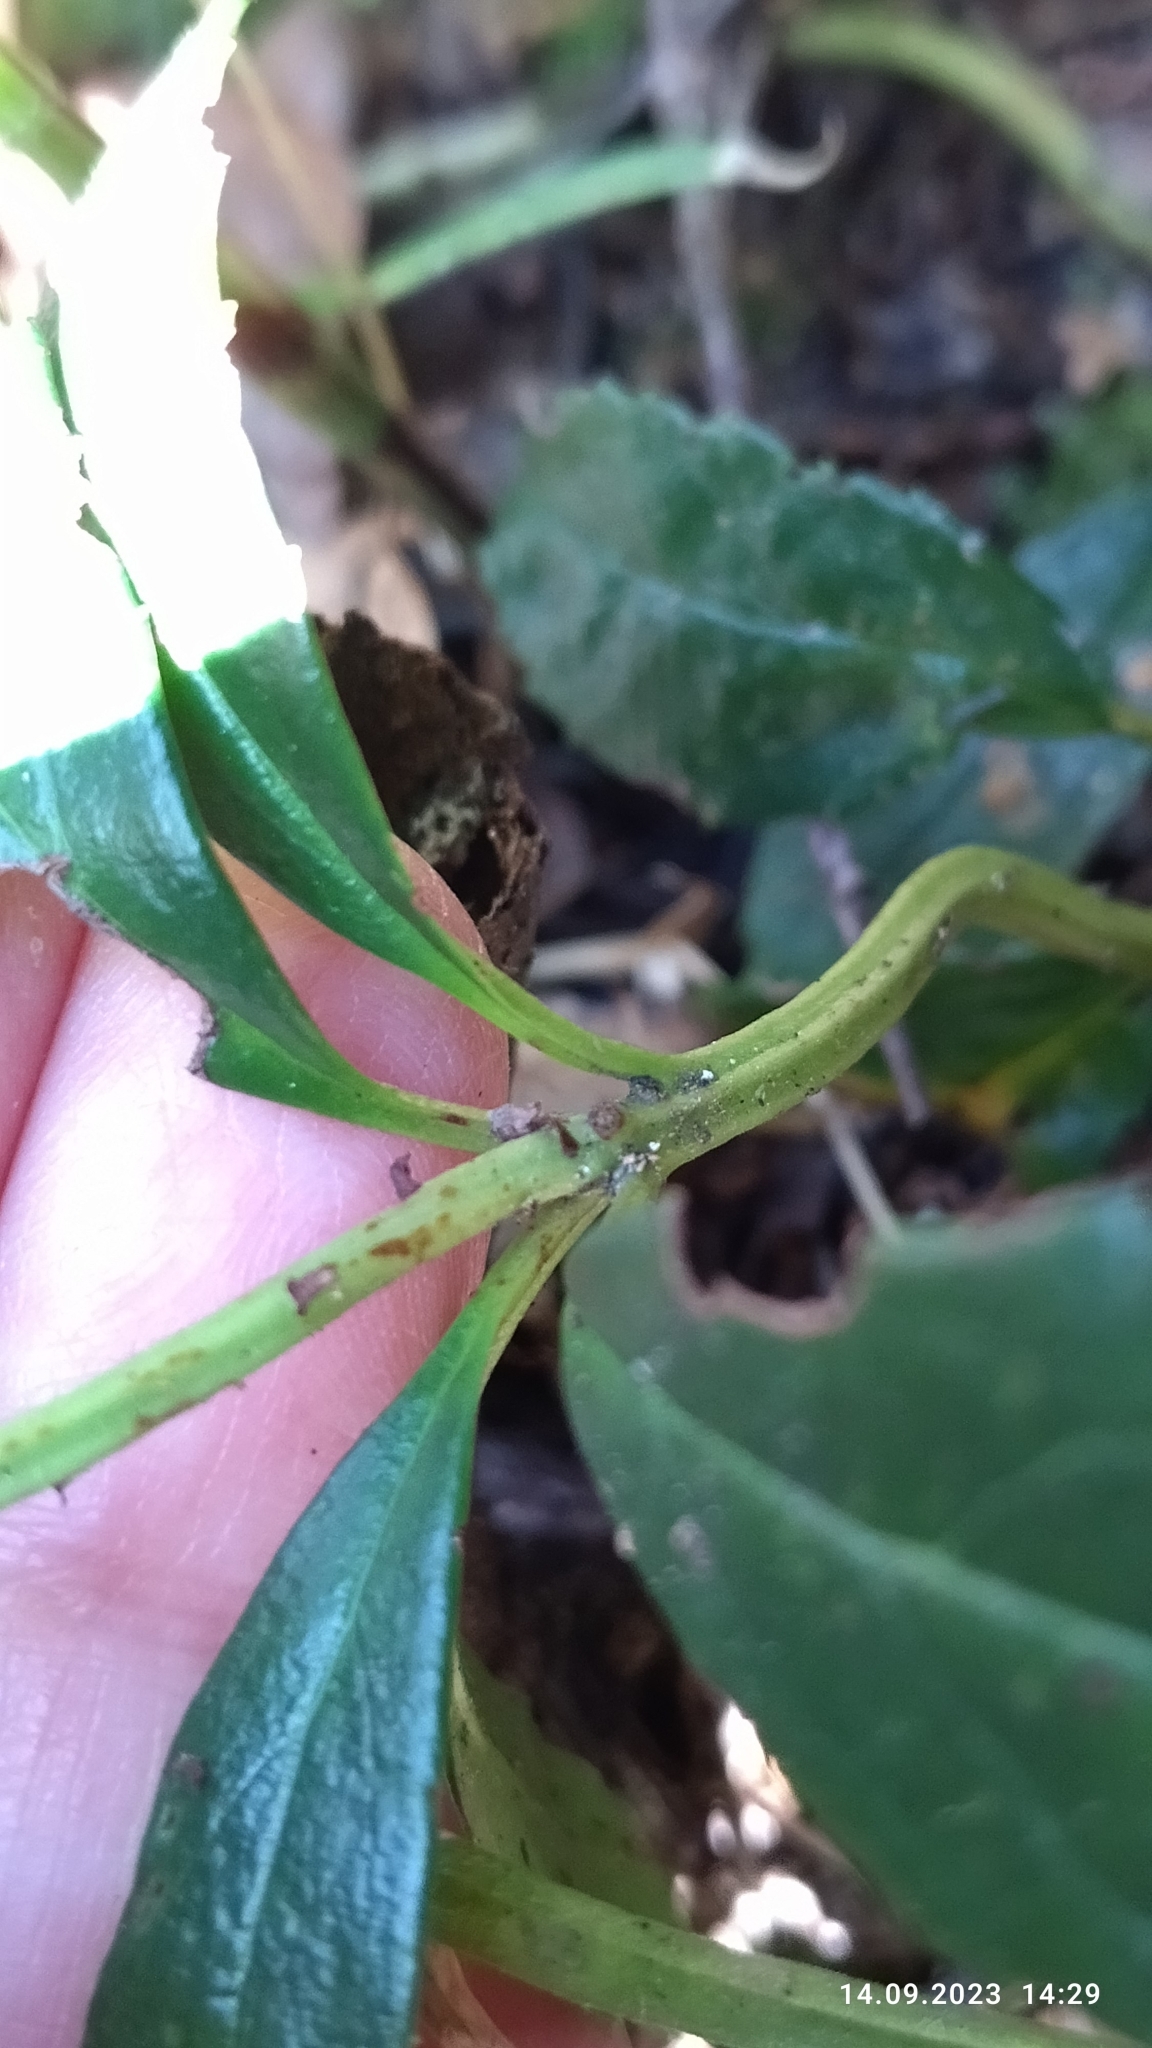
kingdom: Plantae
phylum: Tracheophyta
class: Magnoliopsida
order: Ericales
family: Ericaceae
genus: Chimaphila
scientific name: Chimaphila umbellata
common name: Pipsissewa
